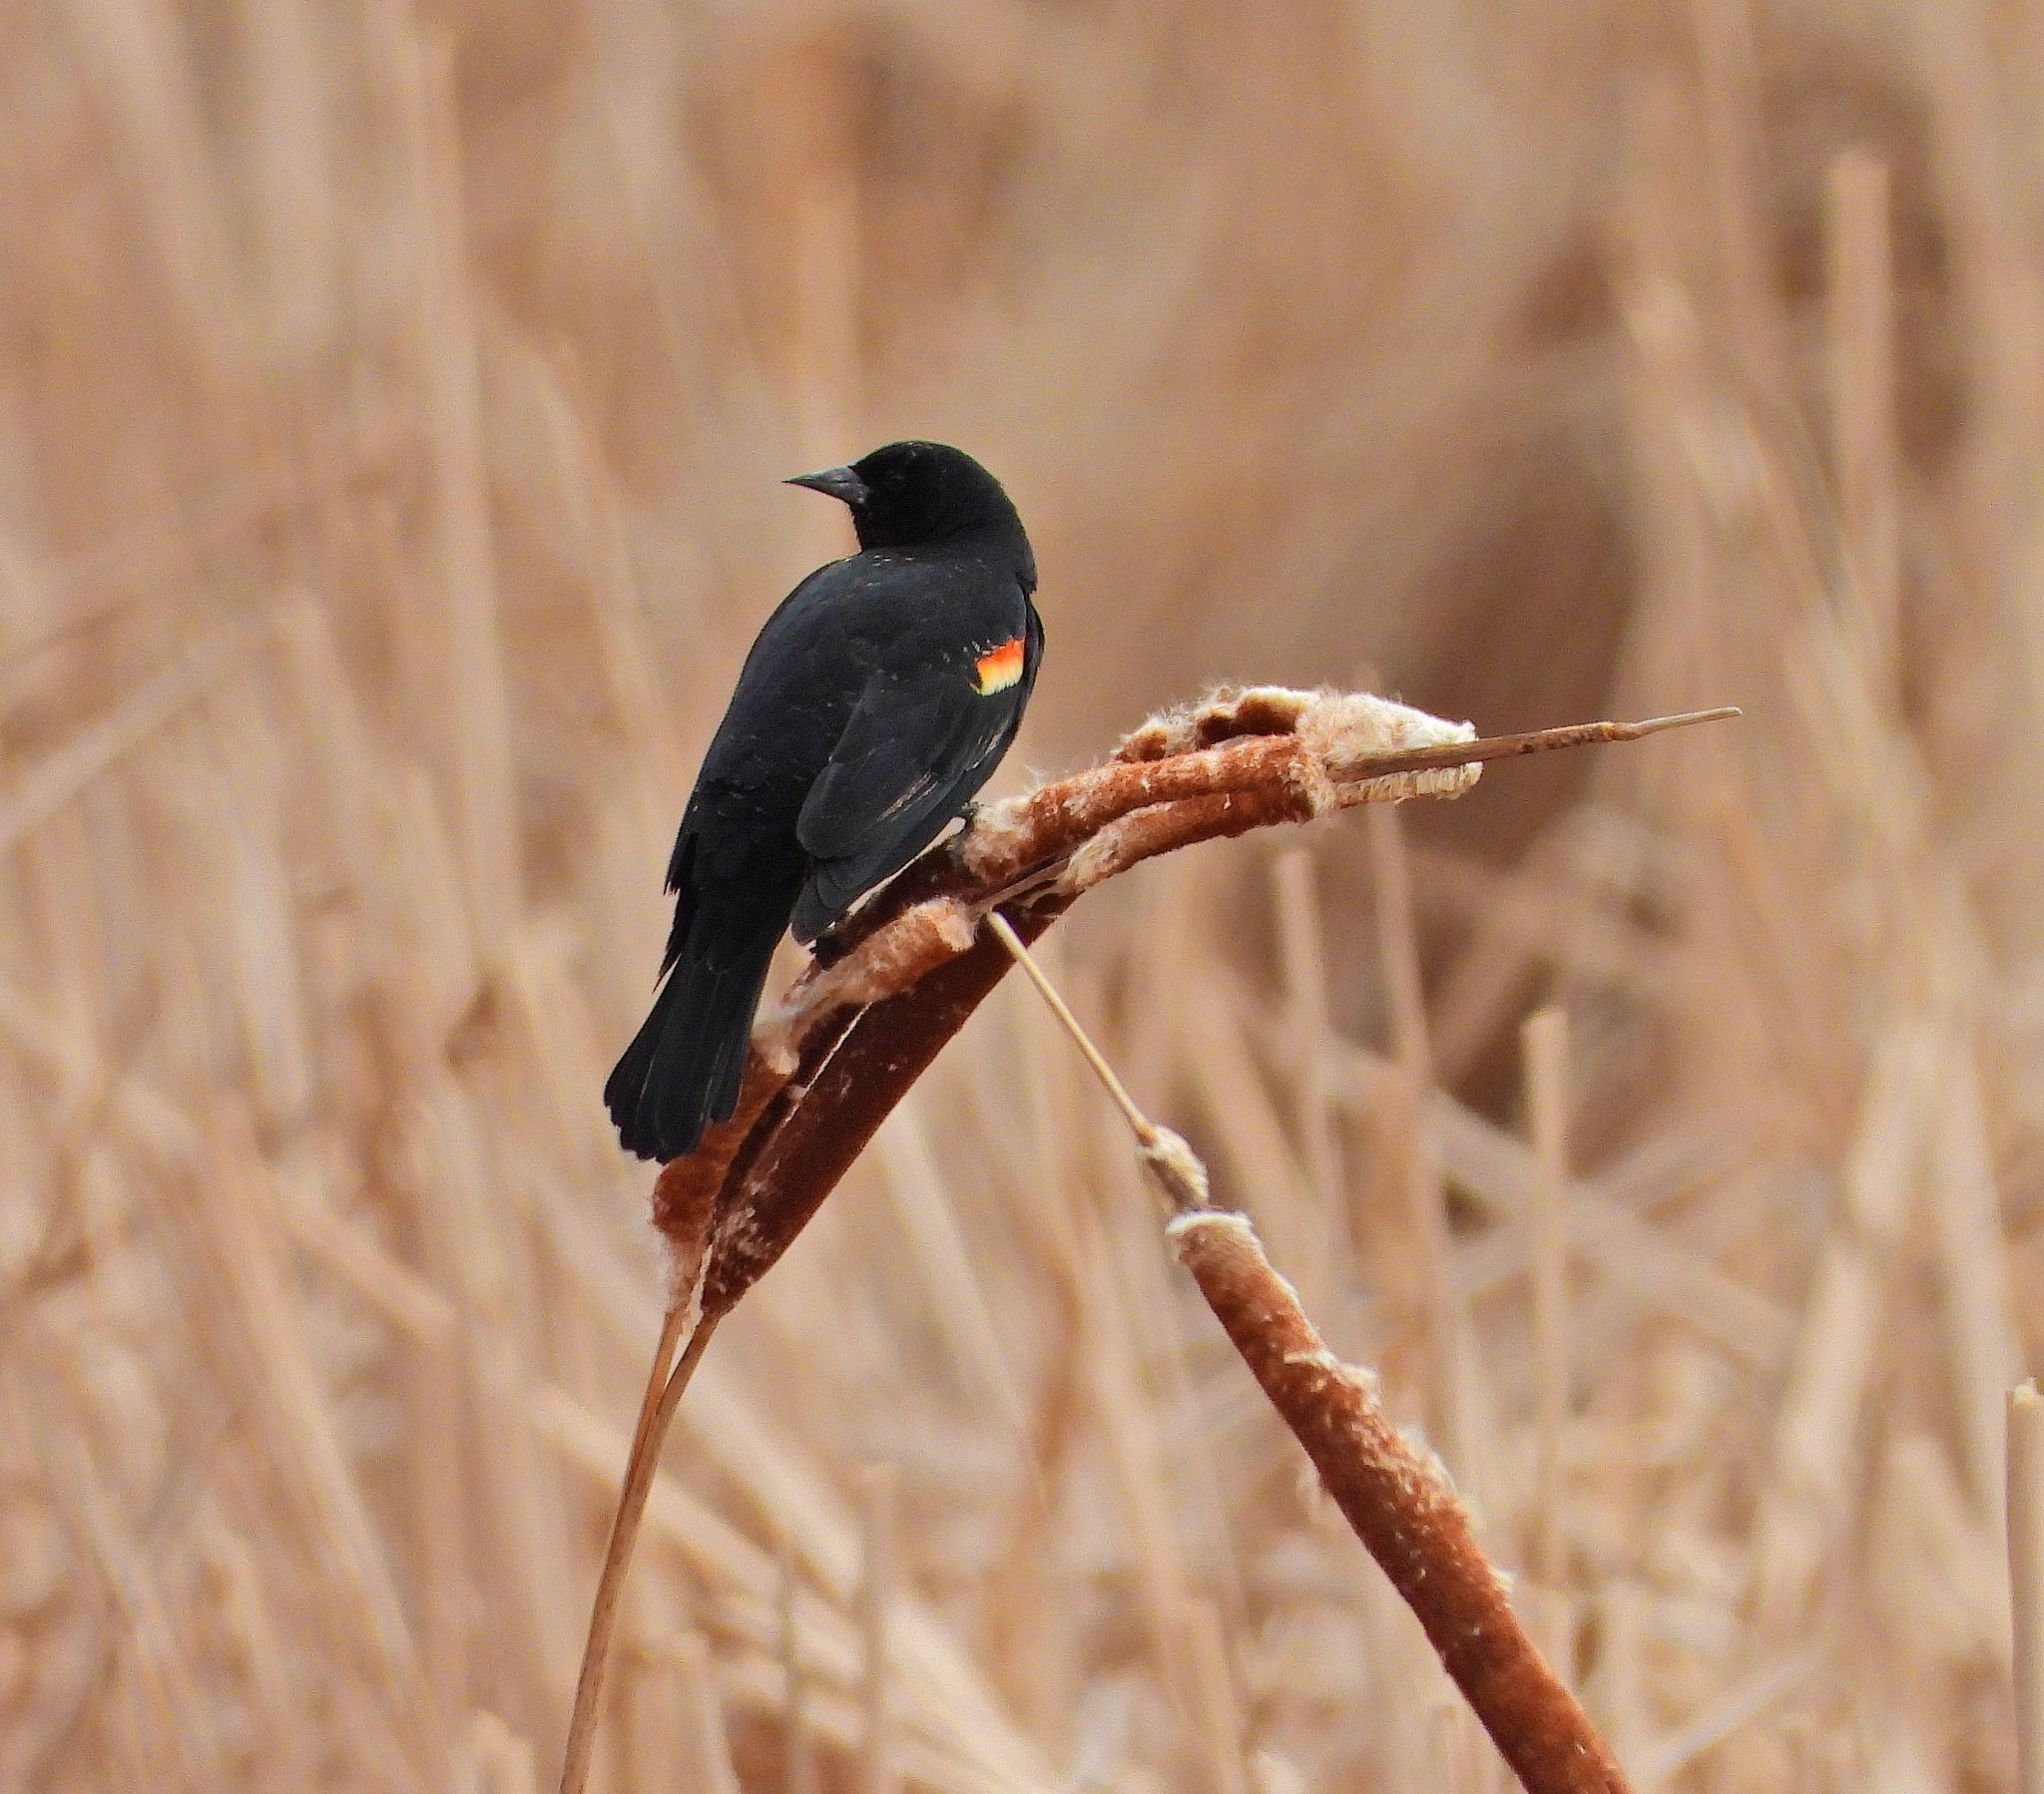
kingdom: Animalia
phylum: Chordata
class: Aves
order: Passeriformes
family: Icteridae
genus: Agelaius
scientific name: Agelaius phoeniceus
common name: Red-winged blackbird
